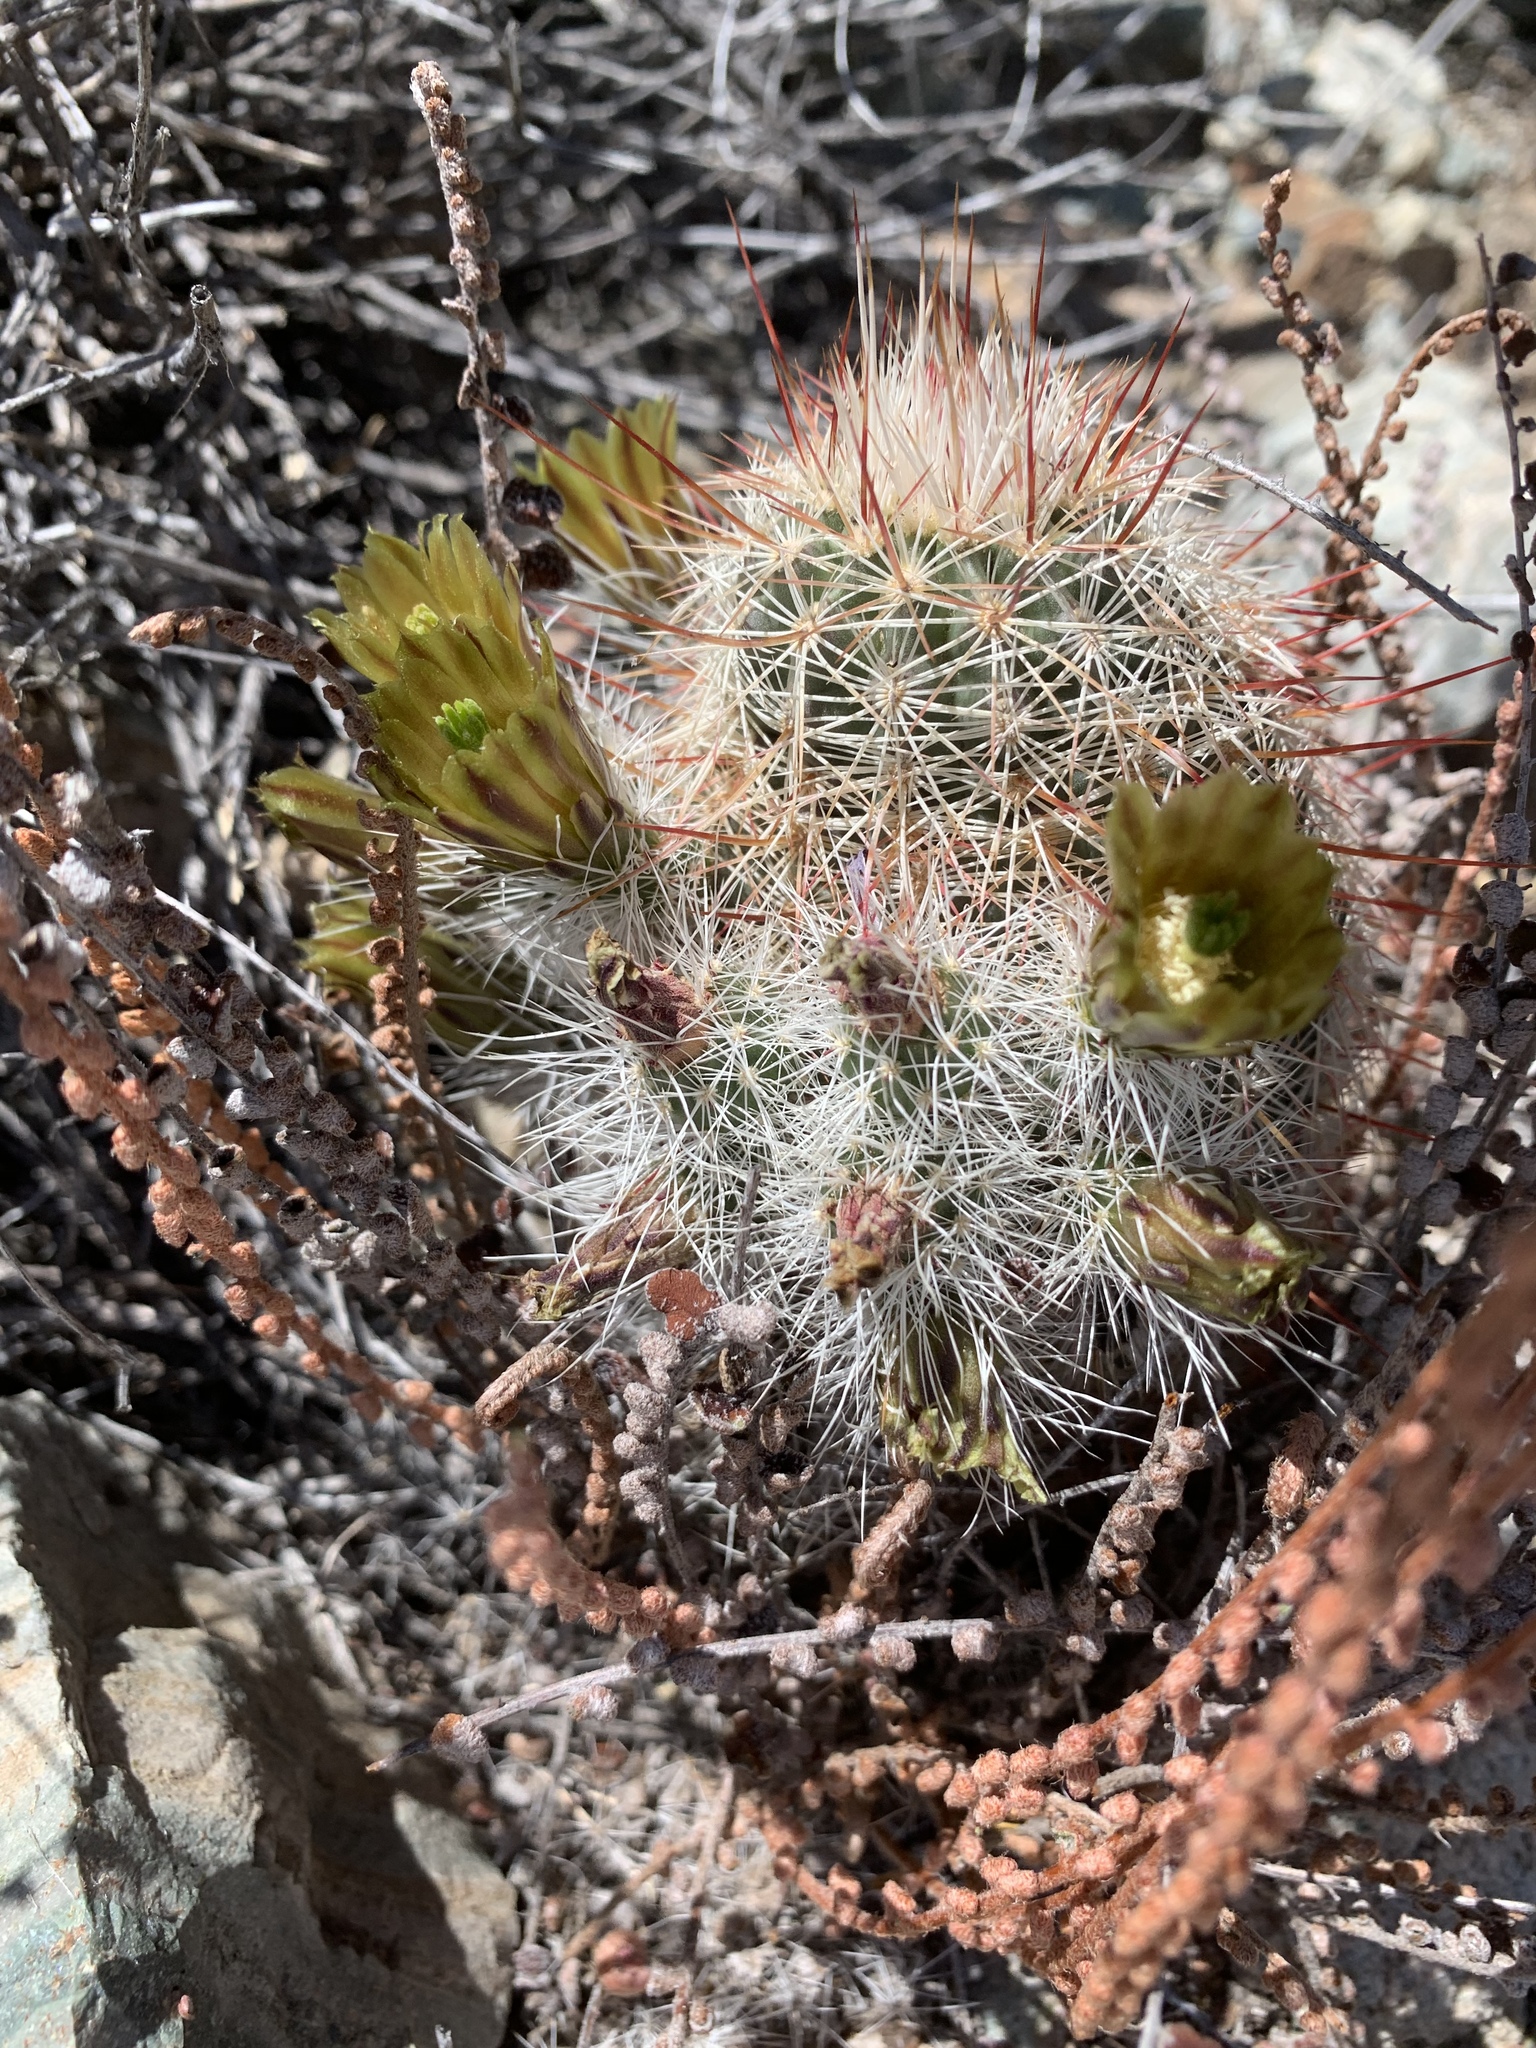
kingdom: Plantae
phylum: Tracheophyta
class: Magnoliopsida
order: Caryophyllales
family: Cactaceae
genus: Echinocereus
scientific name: Echinocereus viridiflorus
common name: Nylon hedgehog cactus
